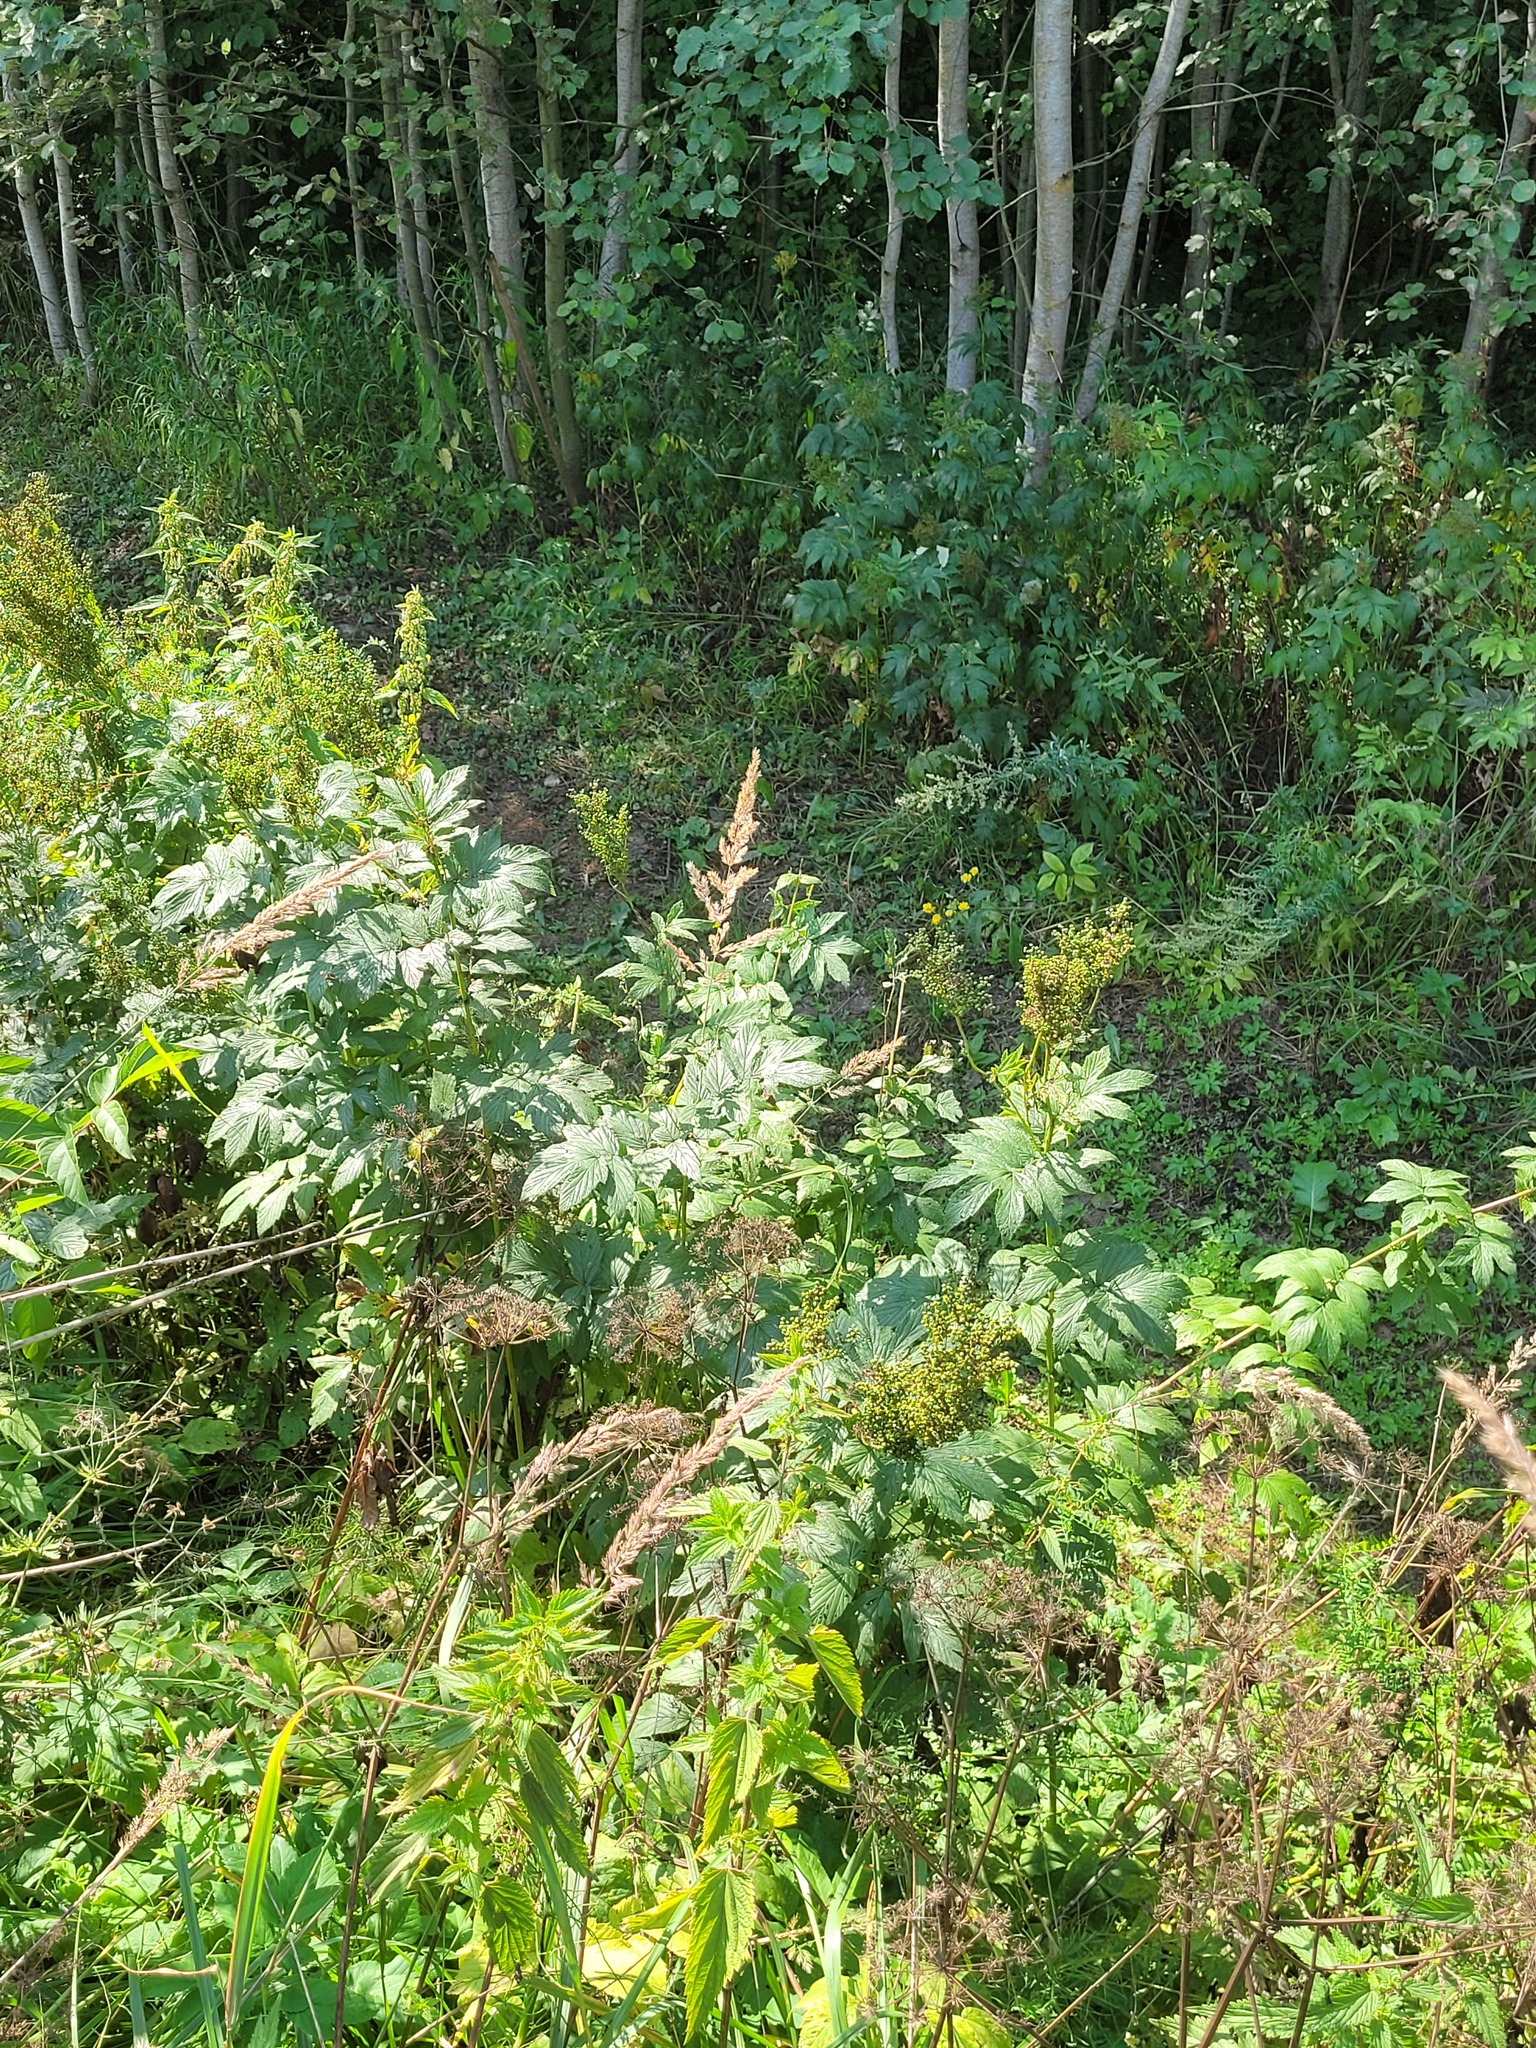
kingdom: Plantae
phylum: Tracheophyta
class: Magnoliopsida
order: Rosales
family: Rosaceae
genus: Filipendula
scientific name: Filipendula ulmaria
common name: Meadowsweet
